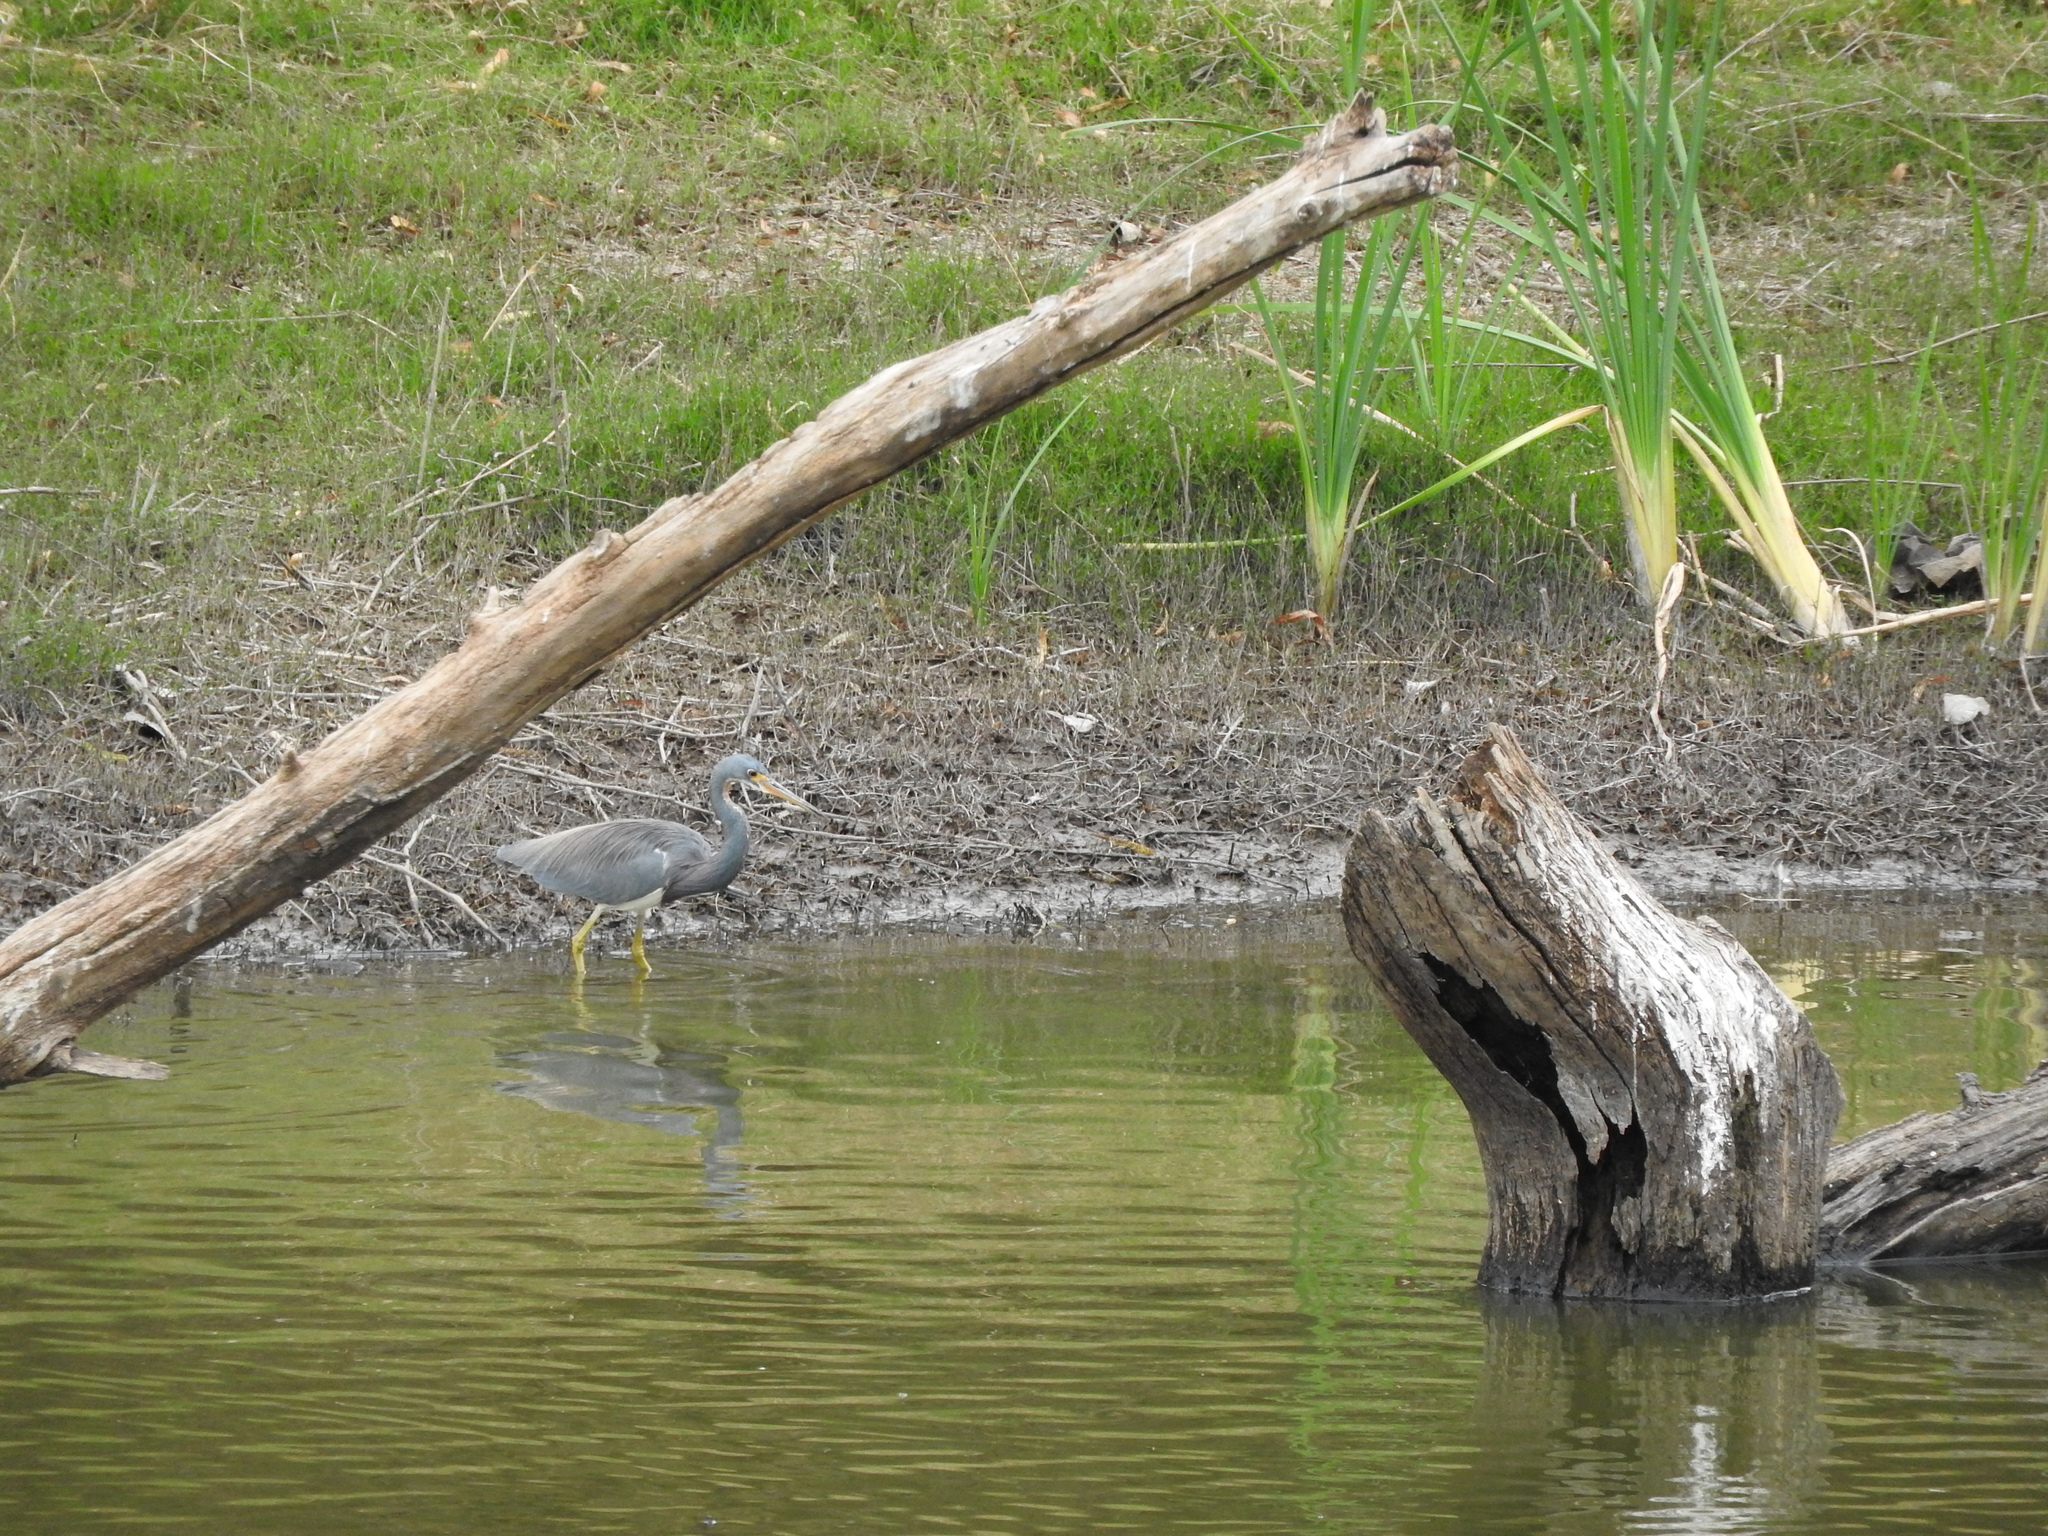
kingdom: Animalia
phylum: Chordata
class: Aves
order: Pelecaniformes
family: Ardeidae
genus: Egretta
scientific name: Egretta tricolor
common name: Tricolored heron
